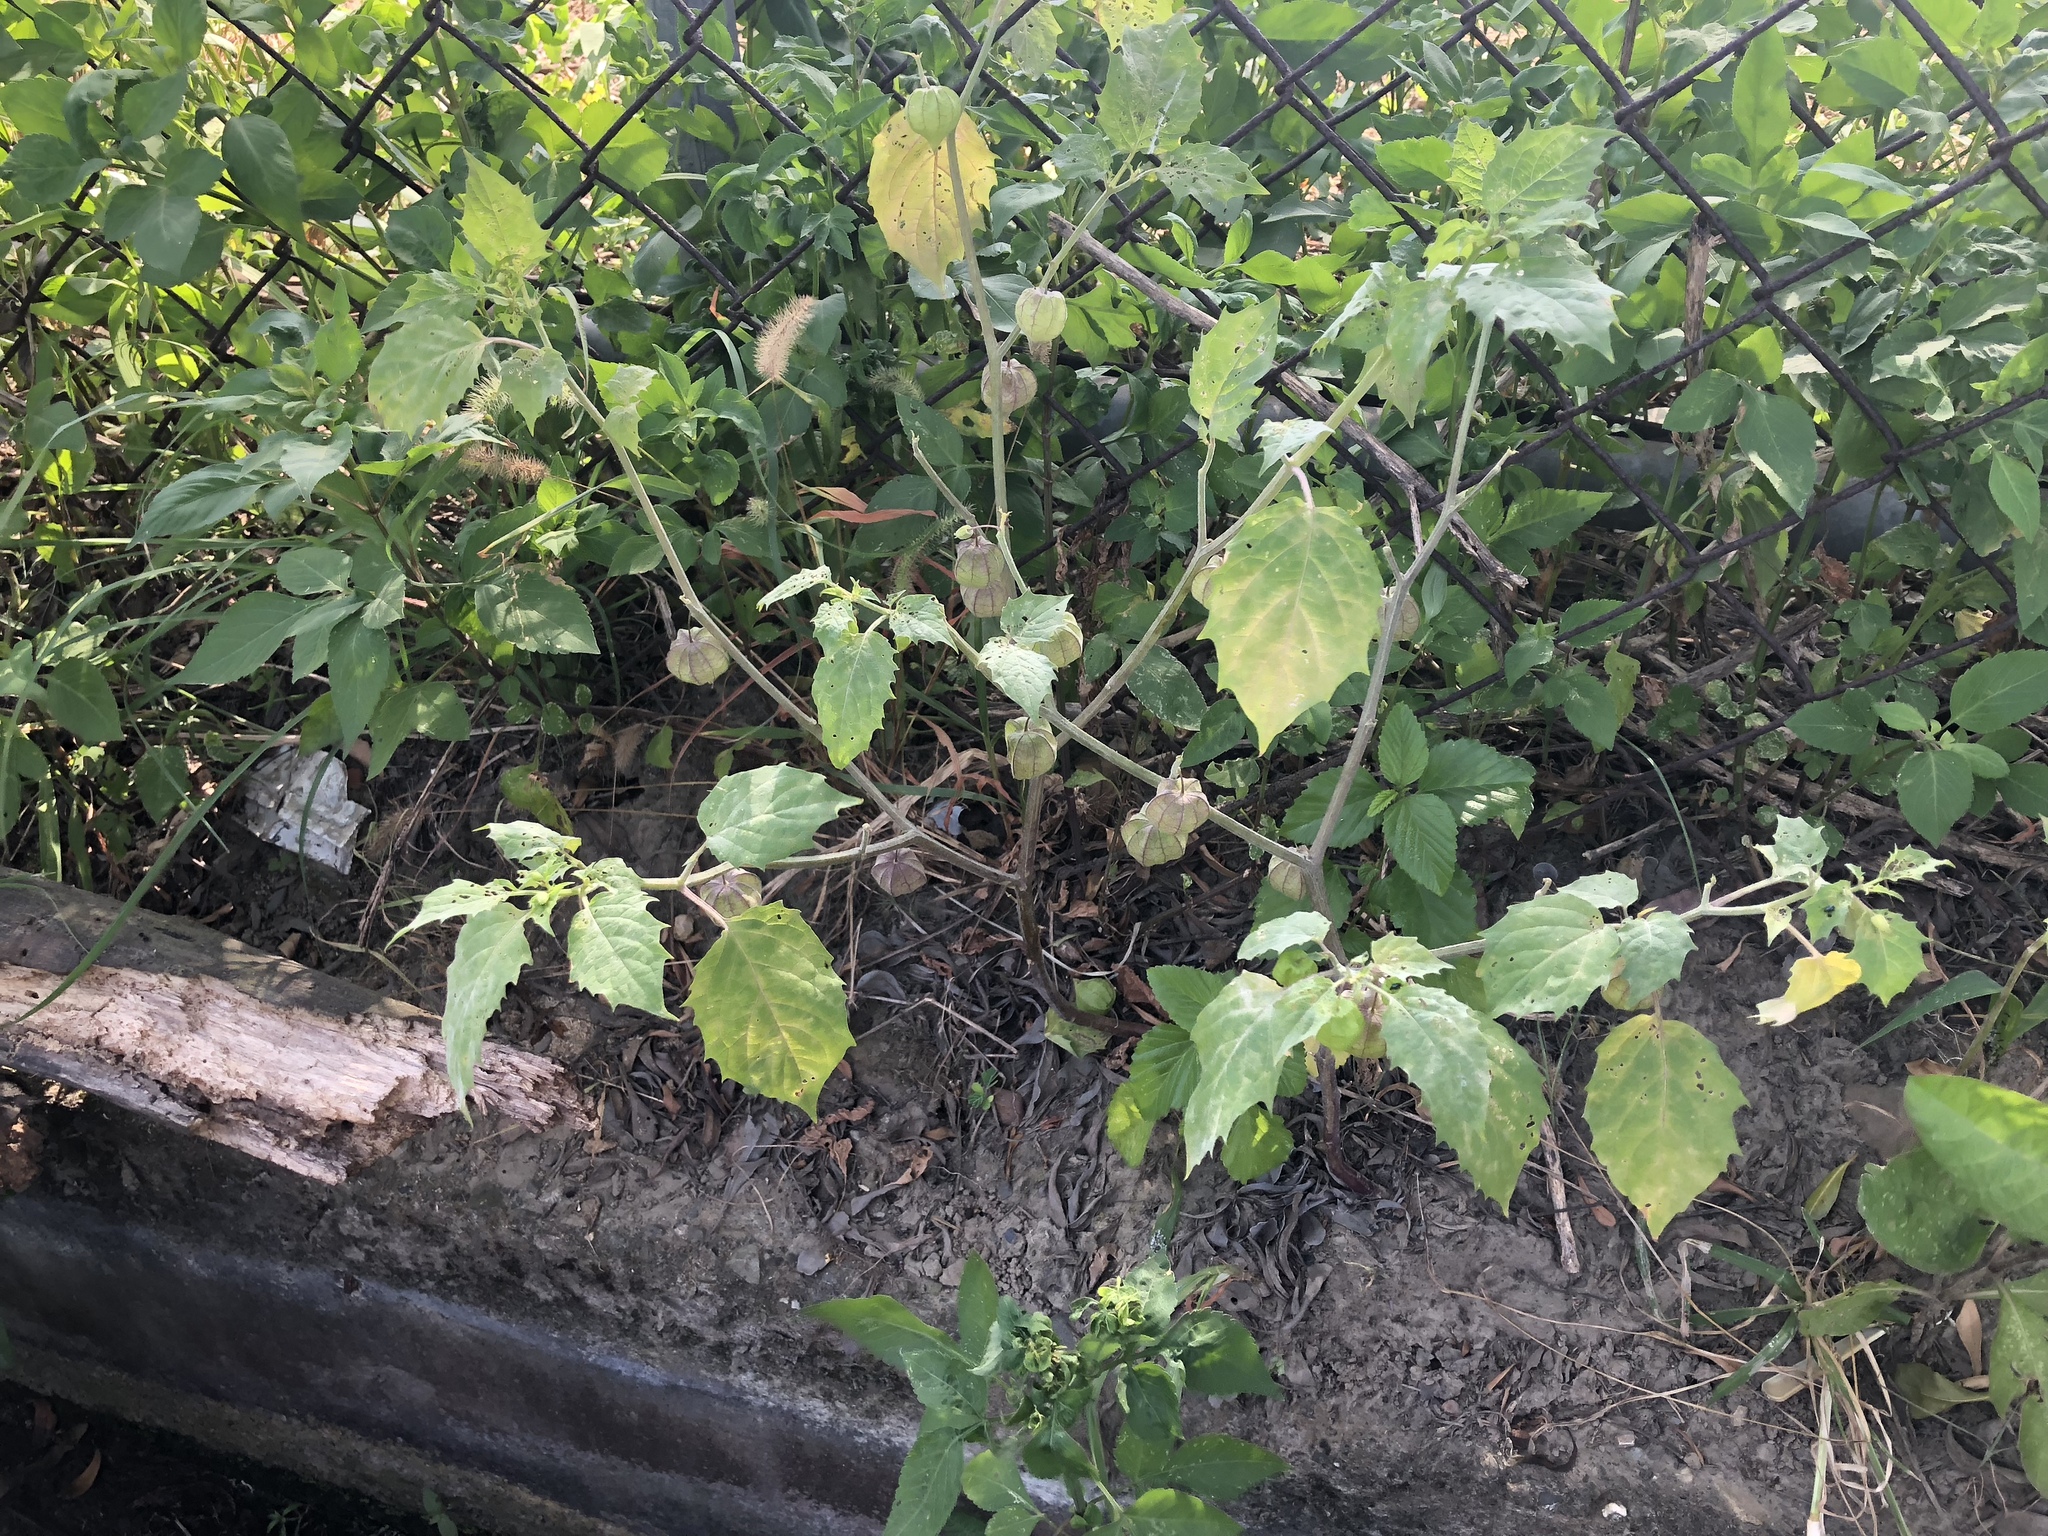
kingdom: Plantae
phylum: Tracheophyta
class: Magnoliopsida
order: Solanales
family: Solanaceae
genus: Physalis
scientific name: Physalis angulata
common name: Angular winter-cherry
